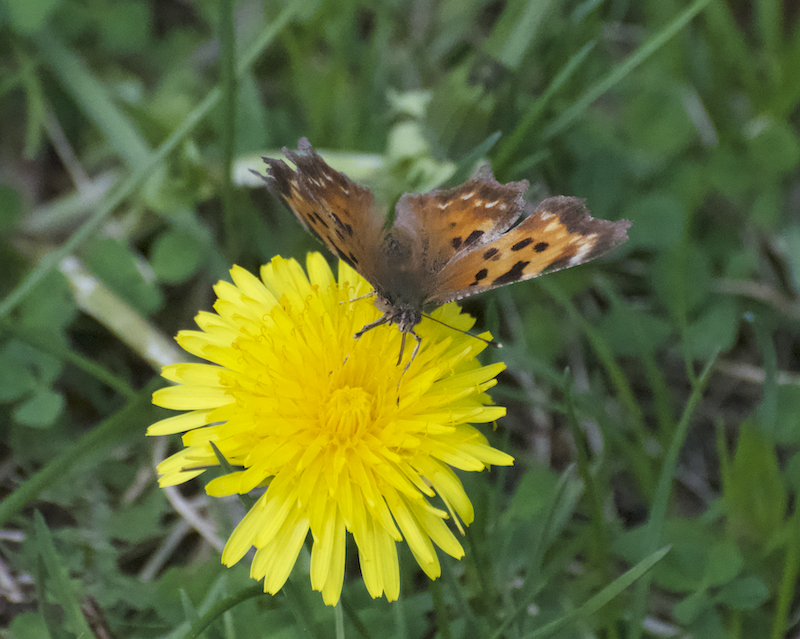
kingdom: Animalia
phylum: Arthropoda
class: Insecta
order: Lepidoptera
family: Nymphalidae
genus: Polygonia
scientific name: Polygonia faunus
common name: Green comma
